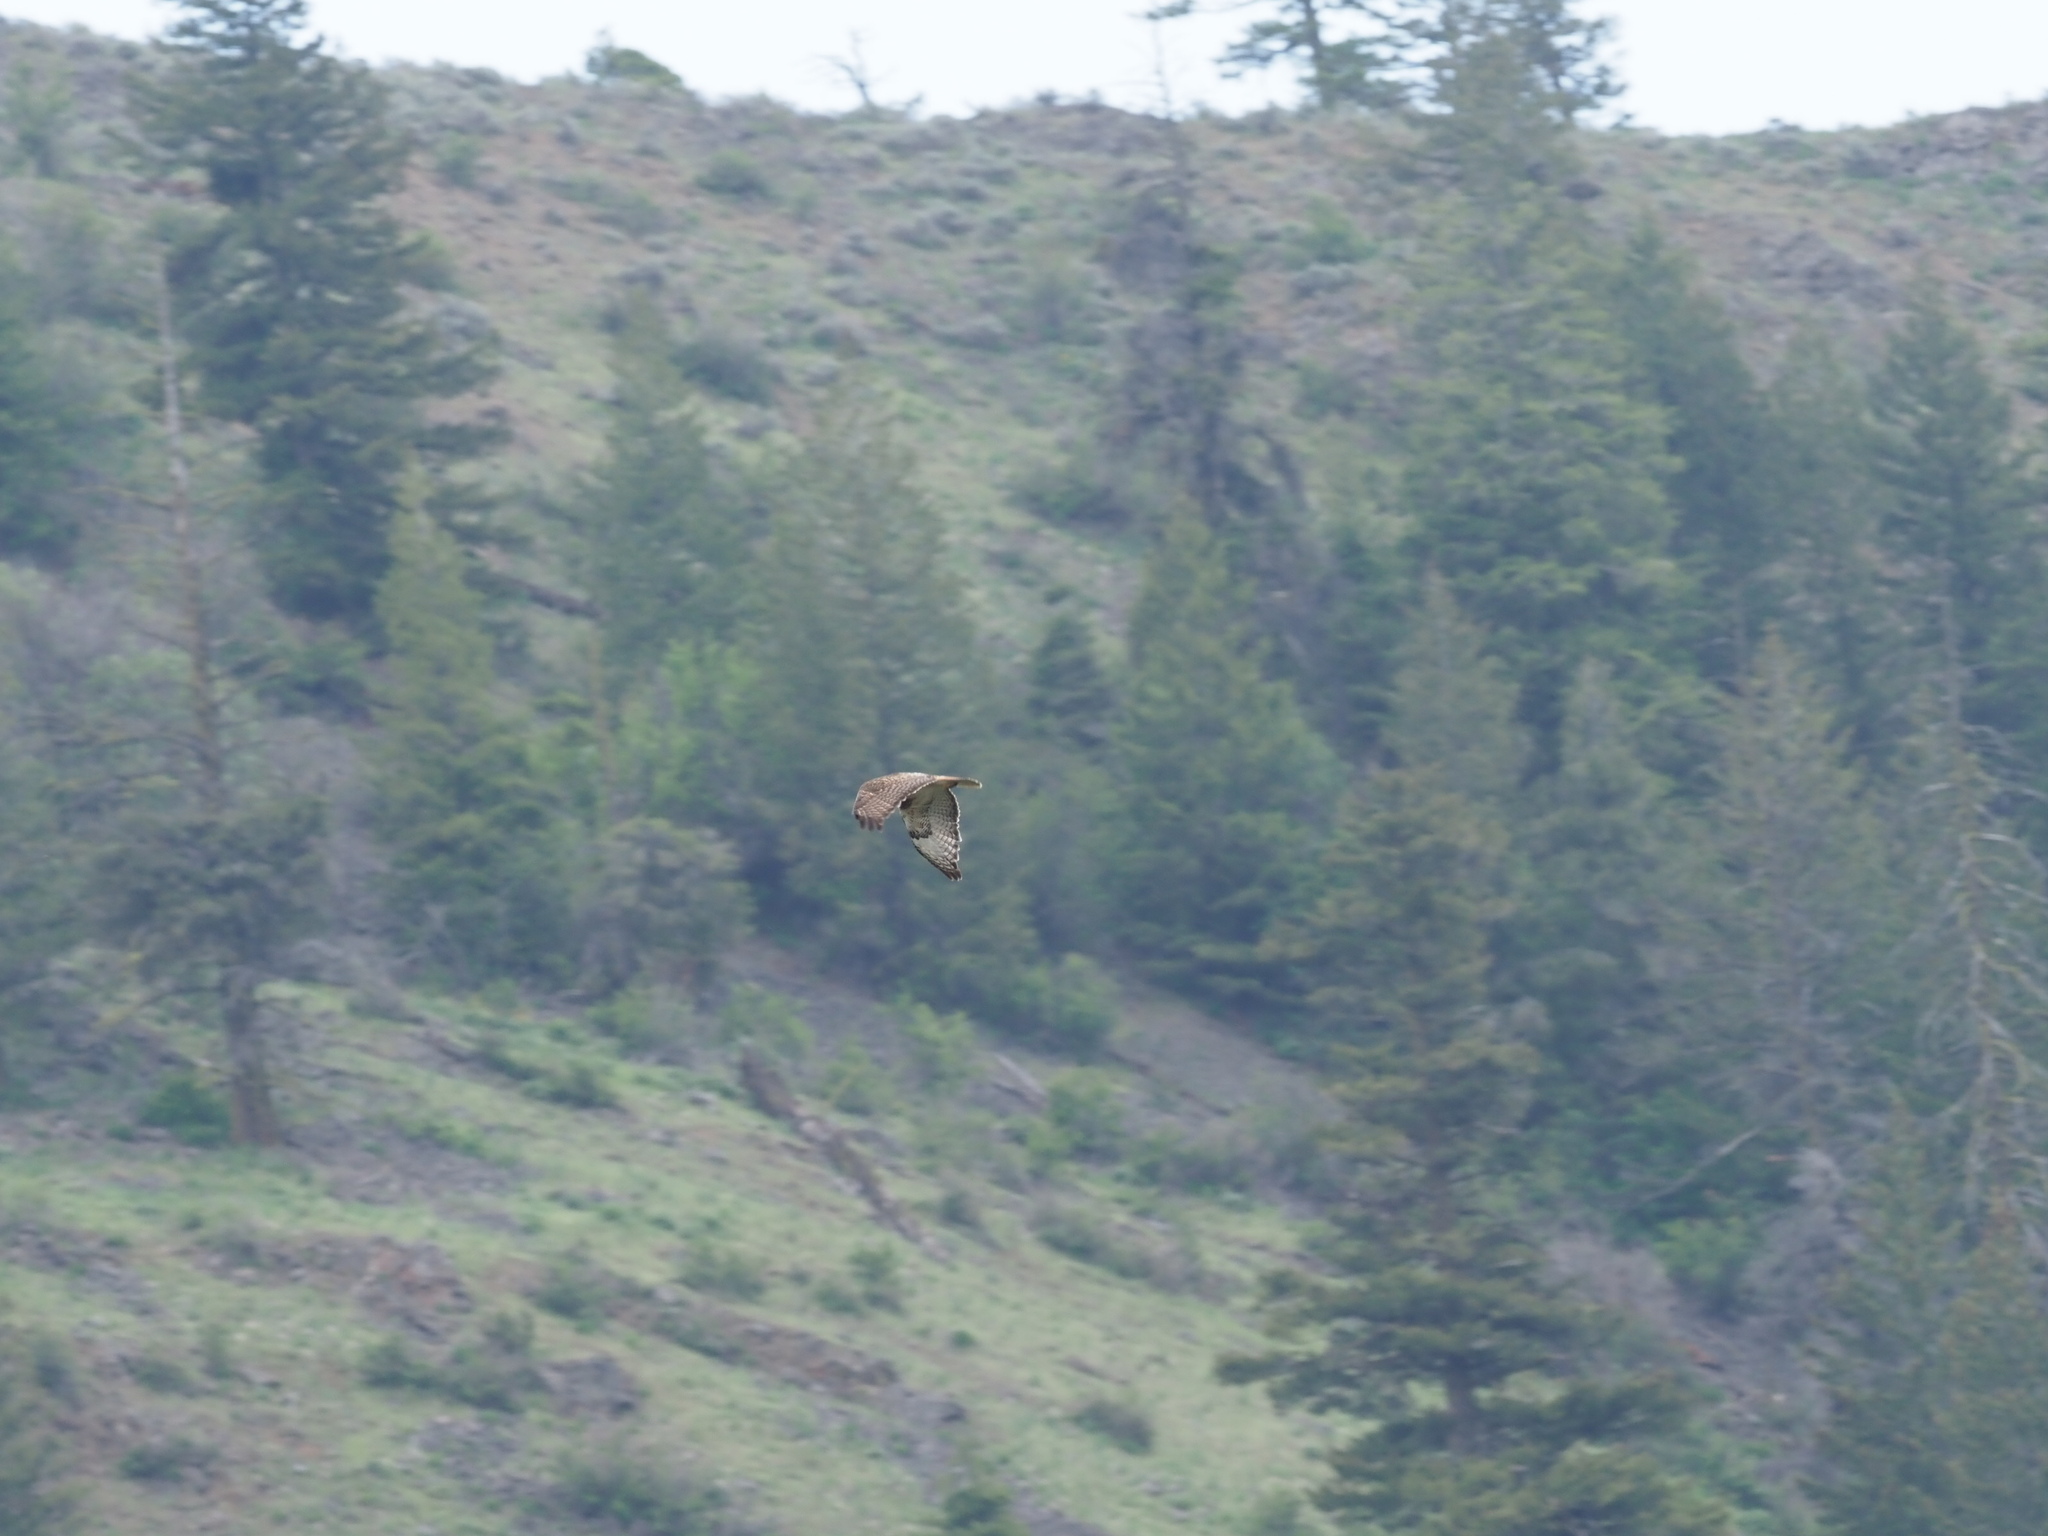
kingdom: Animalia
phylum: Chordata
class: Aves
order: Accipitriformes
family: Accipitridae
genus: Buteo
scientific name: Buteo jamaicensis
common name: Red-tailed hawk
